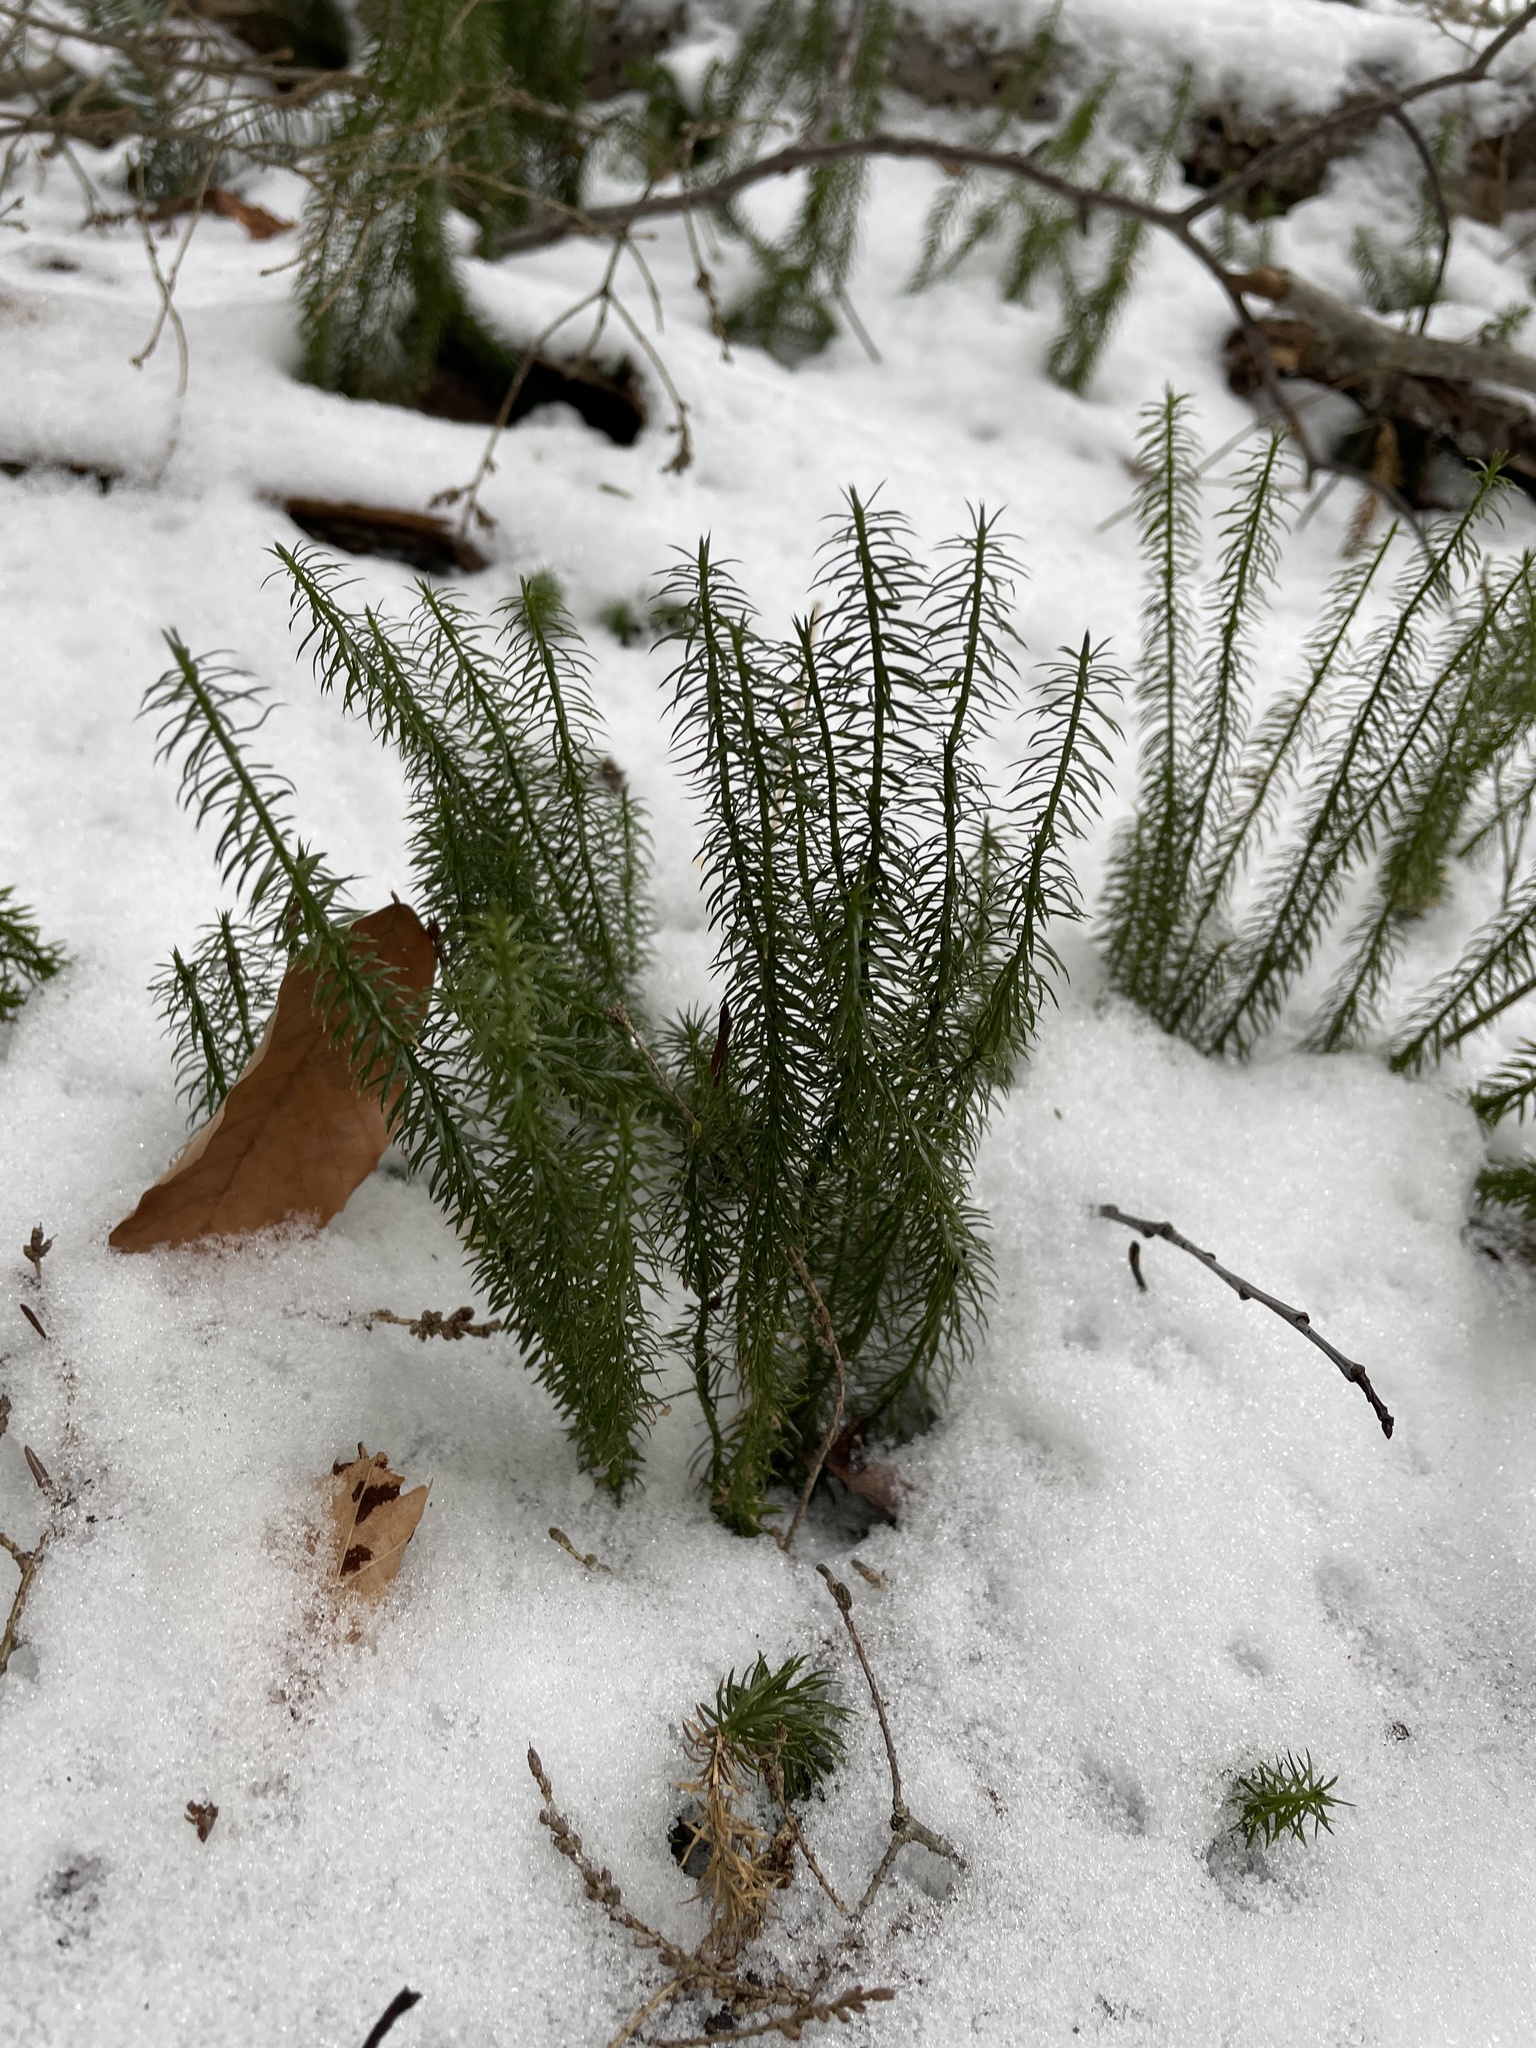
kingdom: Plantae
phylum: Tracheophyta
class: Lycopodiopsida
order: Lycopodiales
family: Lycopodiaceae
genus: Spinulum
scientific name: Spinulum annotinum
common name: Interrupted club-moss
